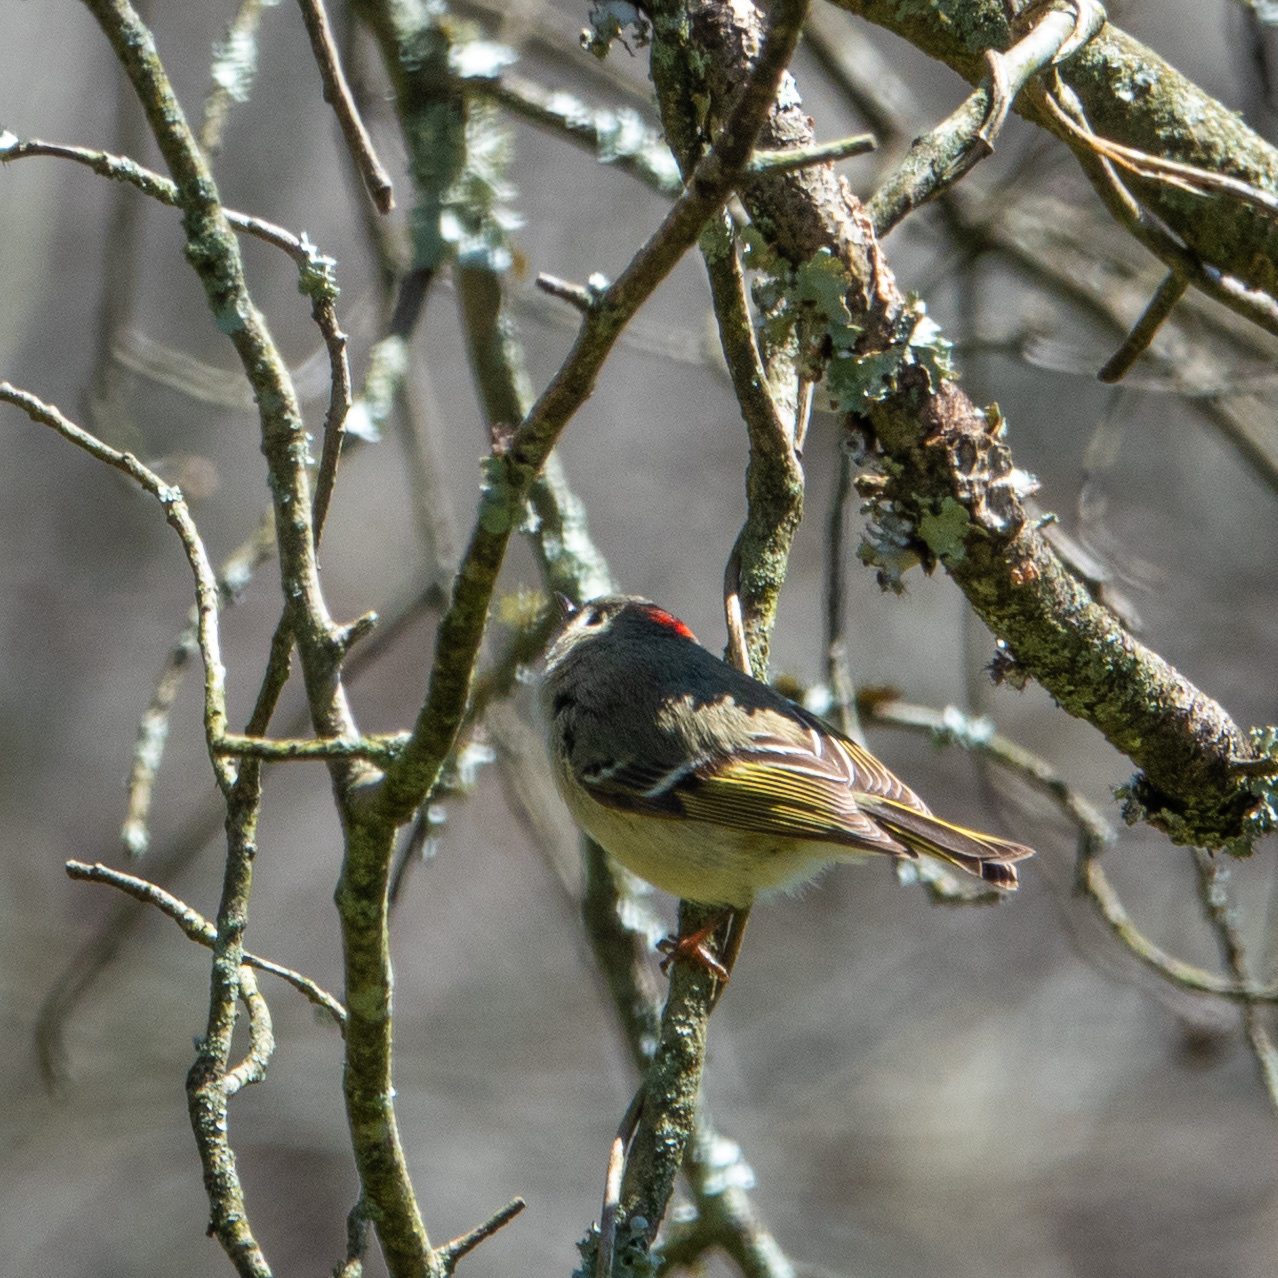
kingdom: Animalia
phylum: Chordata
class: Aves
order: Passeriformes
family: Regulidae
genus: Regulus
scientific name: Regulus calendula
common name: Ruby-crowned kinglet
